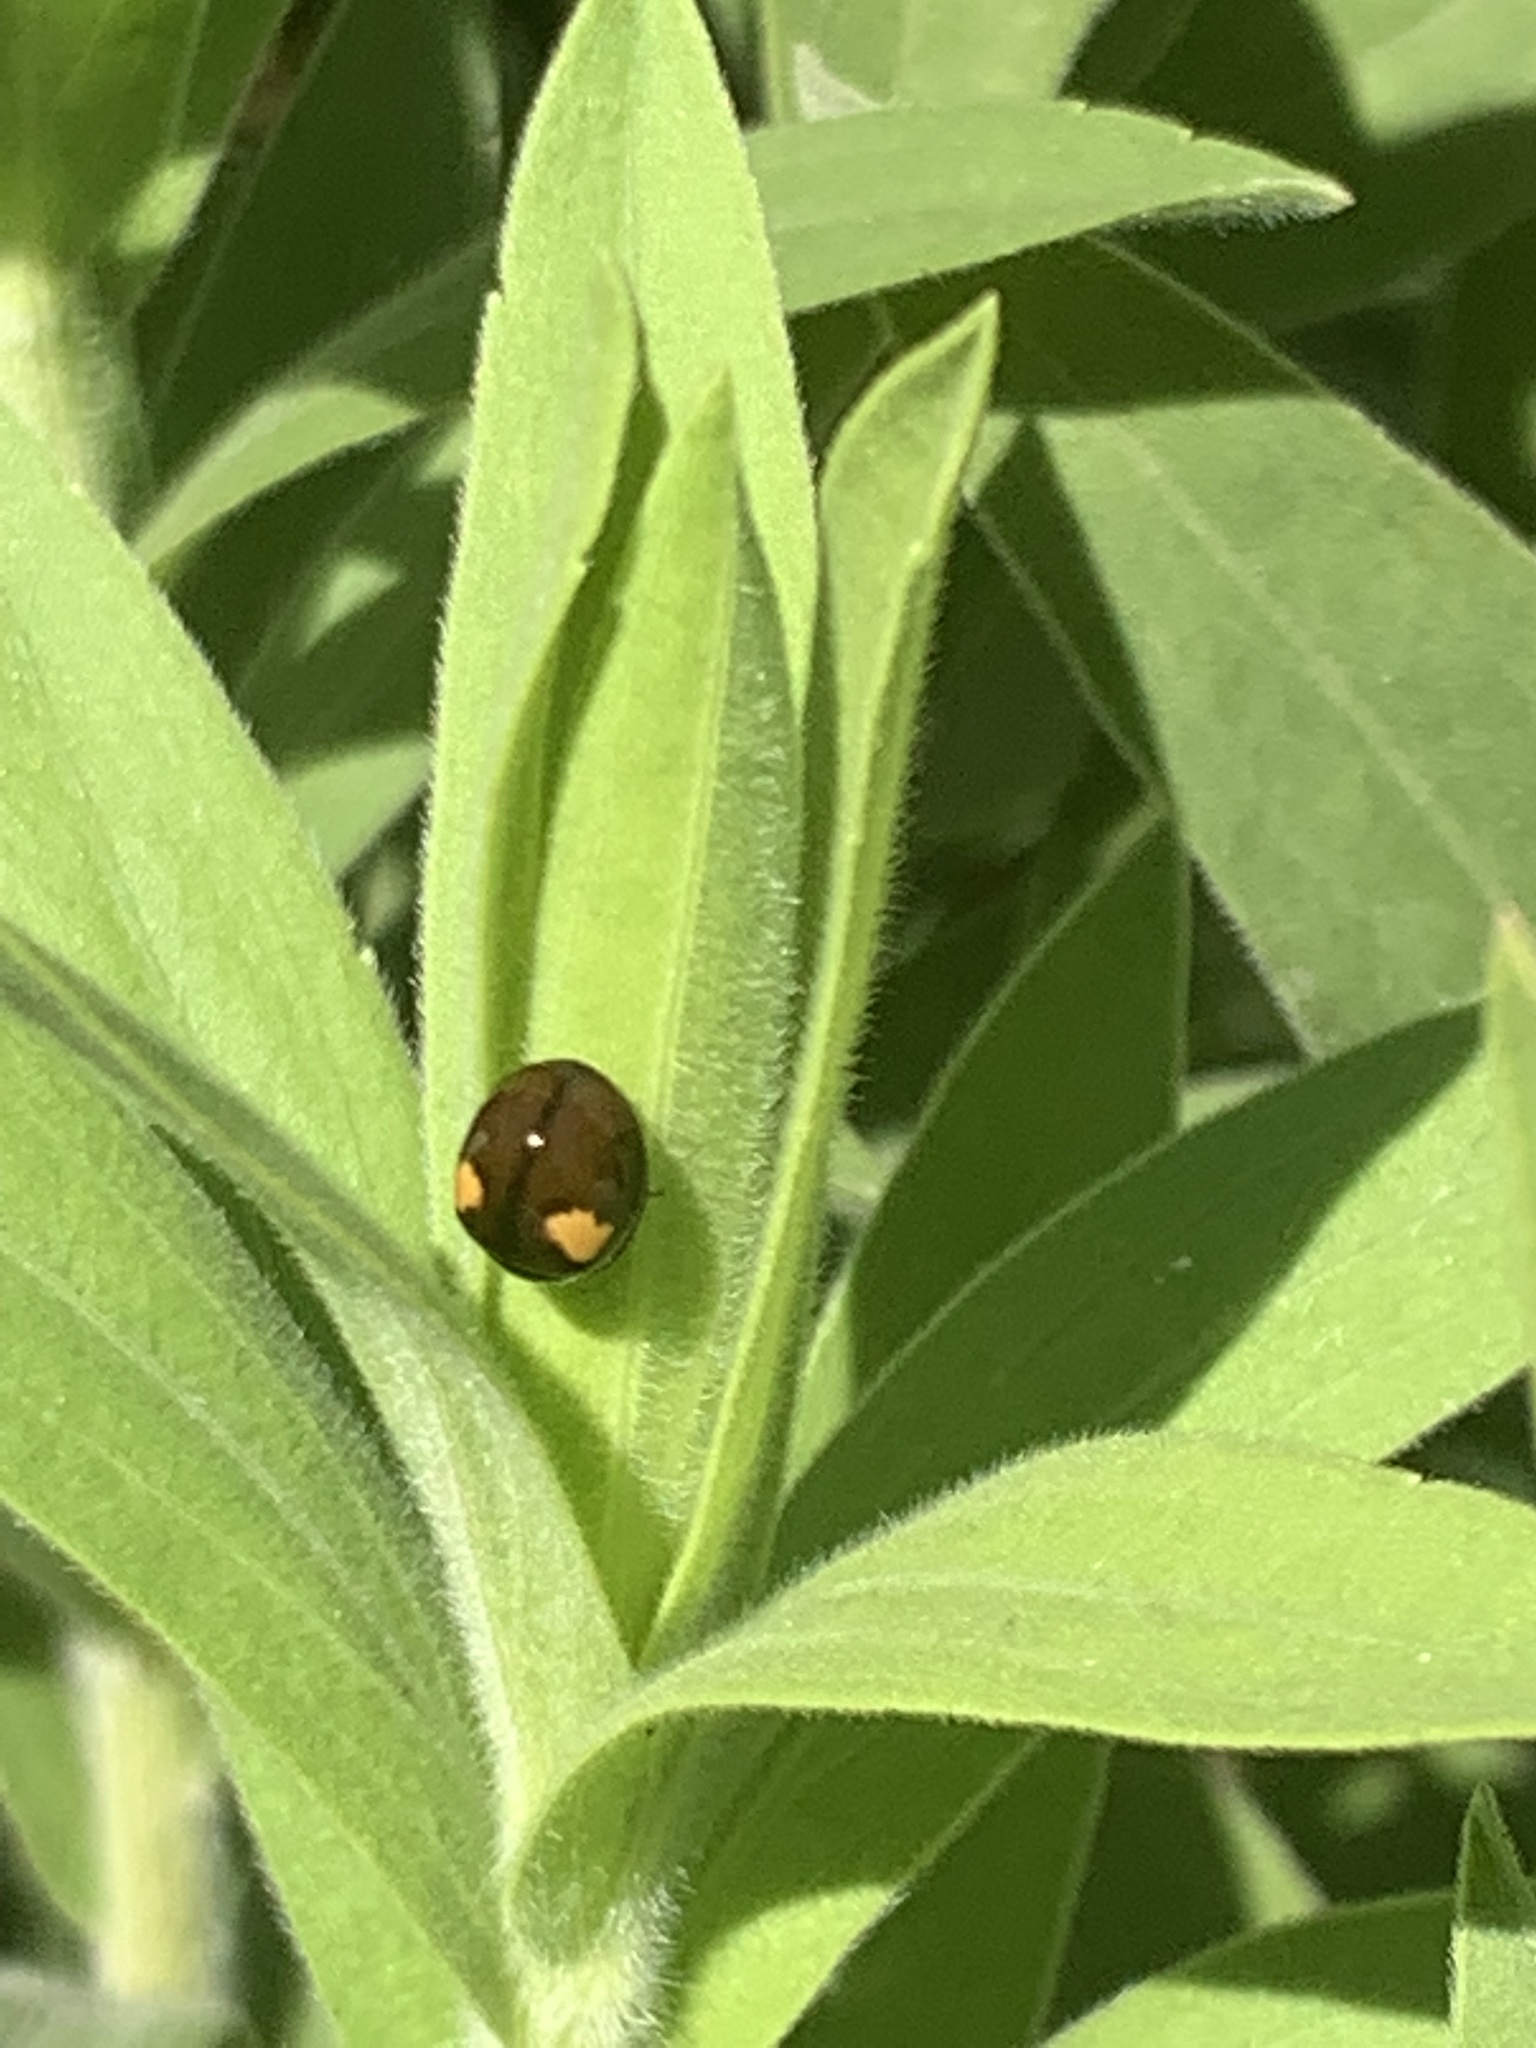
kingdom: Animalia
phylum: Arthropoda
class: Insecta
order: Coleoptera
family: Coccinellidae
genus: Olla
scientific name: Olla v-nigrum
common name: Ashy gray lady beetle
